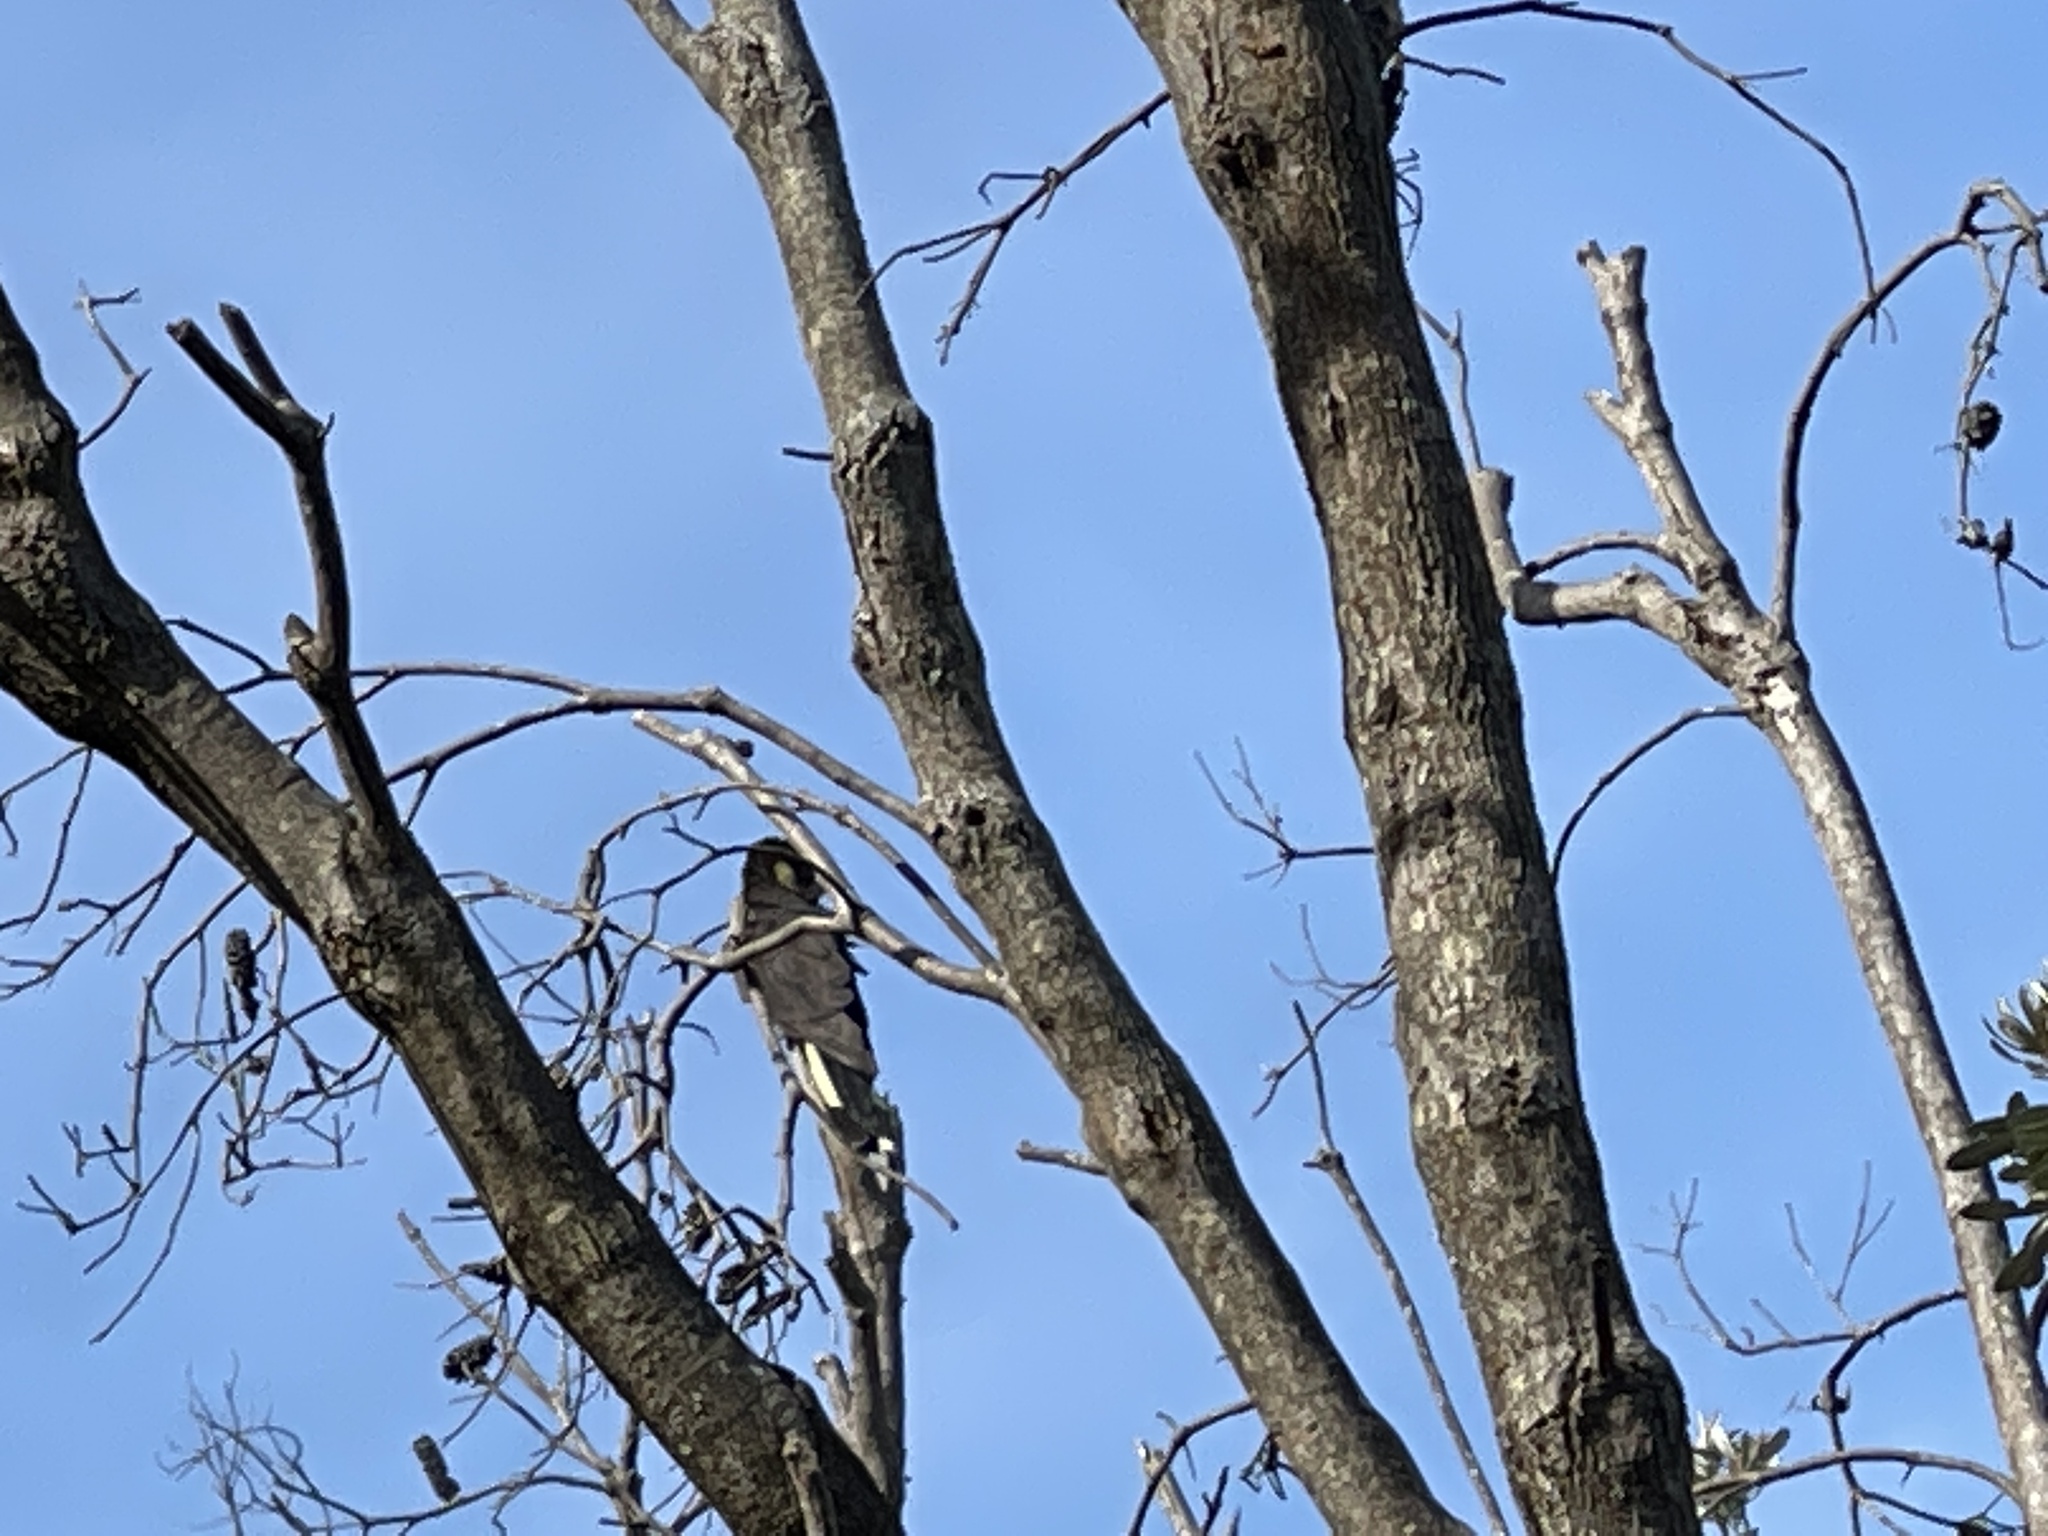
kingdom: Animalia
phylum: Chordata
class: Aves
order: Psittaciformes
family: Cacatuidae
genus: Zanda
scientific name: Zanda funerea
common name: Yellow-tailed black-cockatoo
